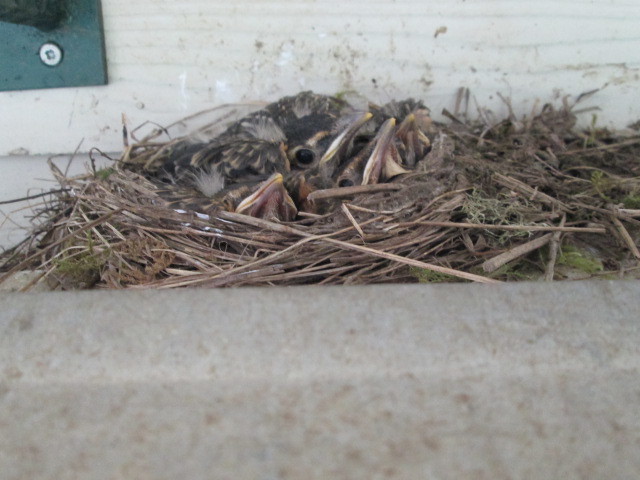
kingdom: Animalia
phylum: Chordata
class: Aves
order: Passeriformes
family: Turdidae
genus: Turdus
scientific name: Turdus migratorius
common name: American robin
